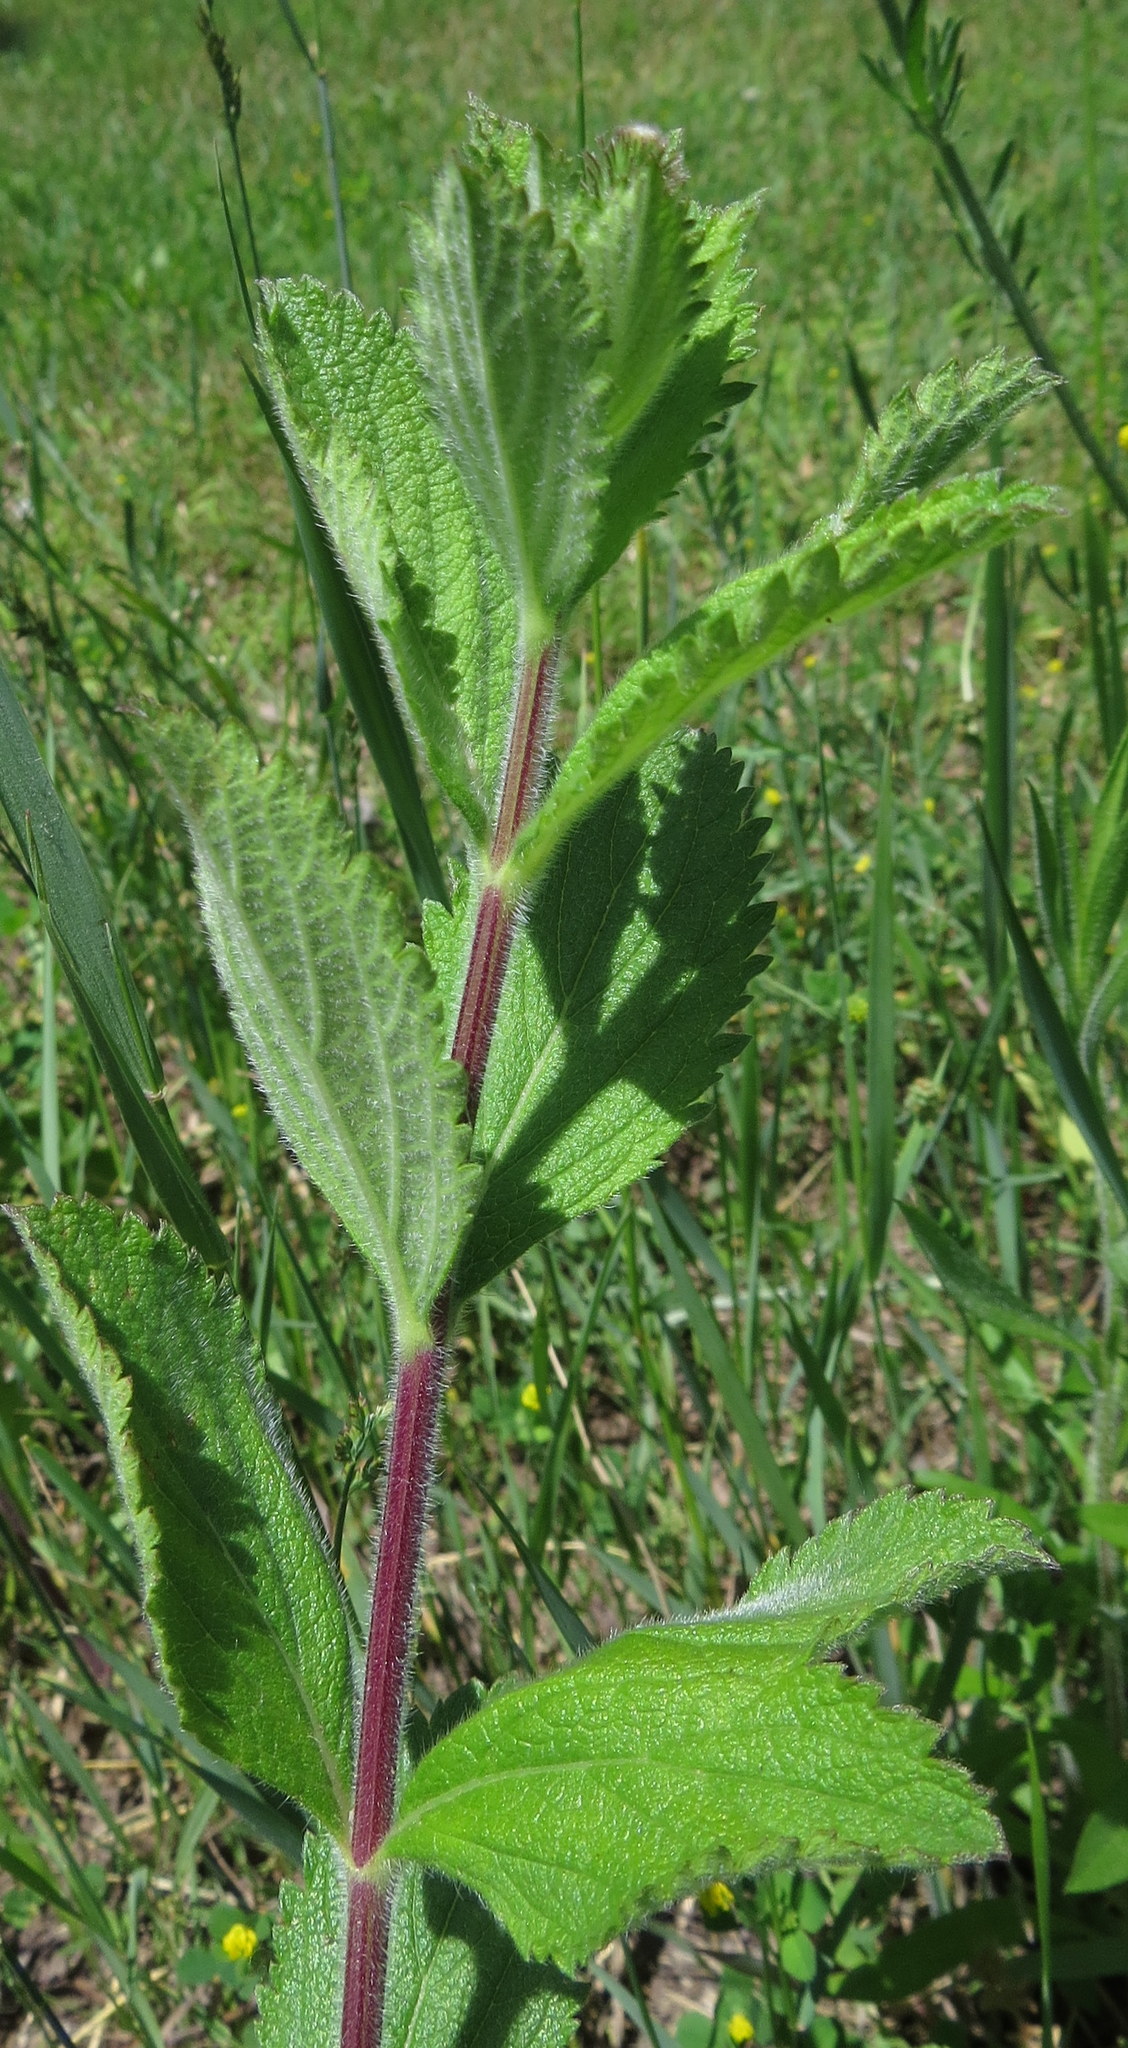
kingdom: Plantae
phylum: Tracheophyta
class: Magnoliopsida
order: Lamiales
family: Verbenaceae
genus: Verbena
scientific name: Verbena stricta
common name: Hoary vervain
